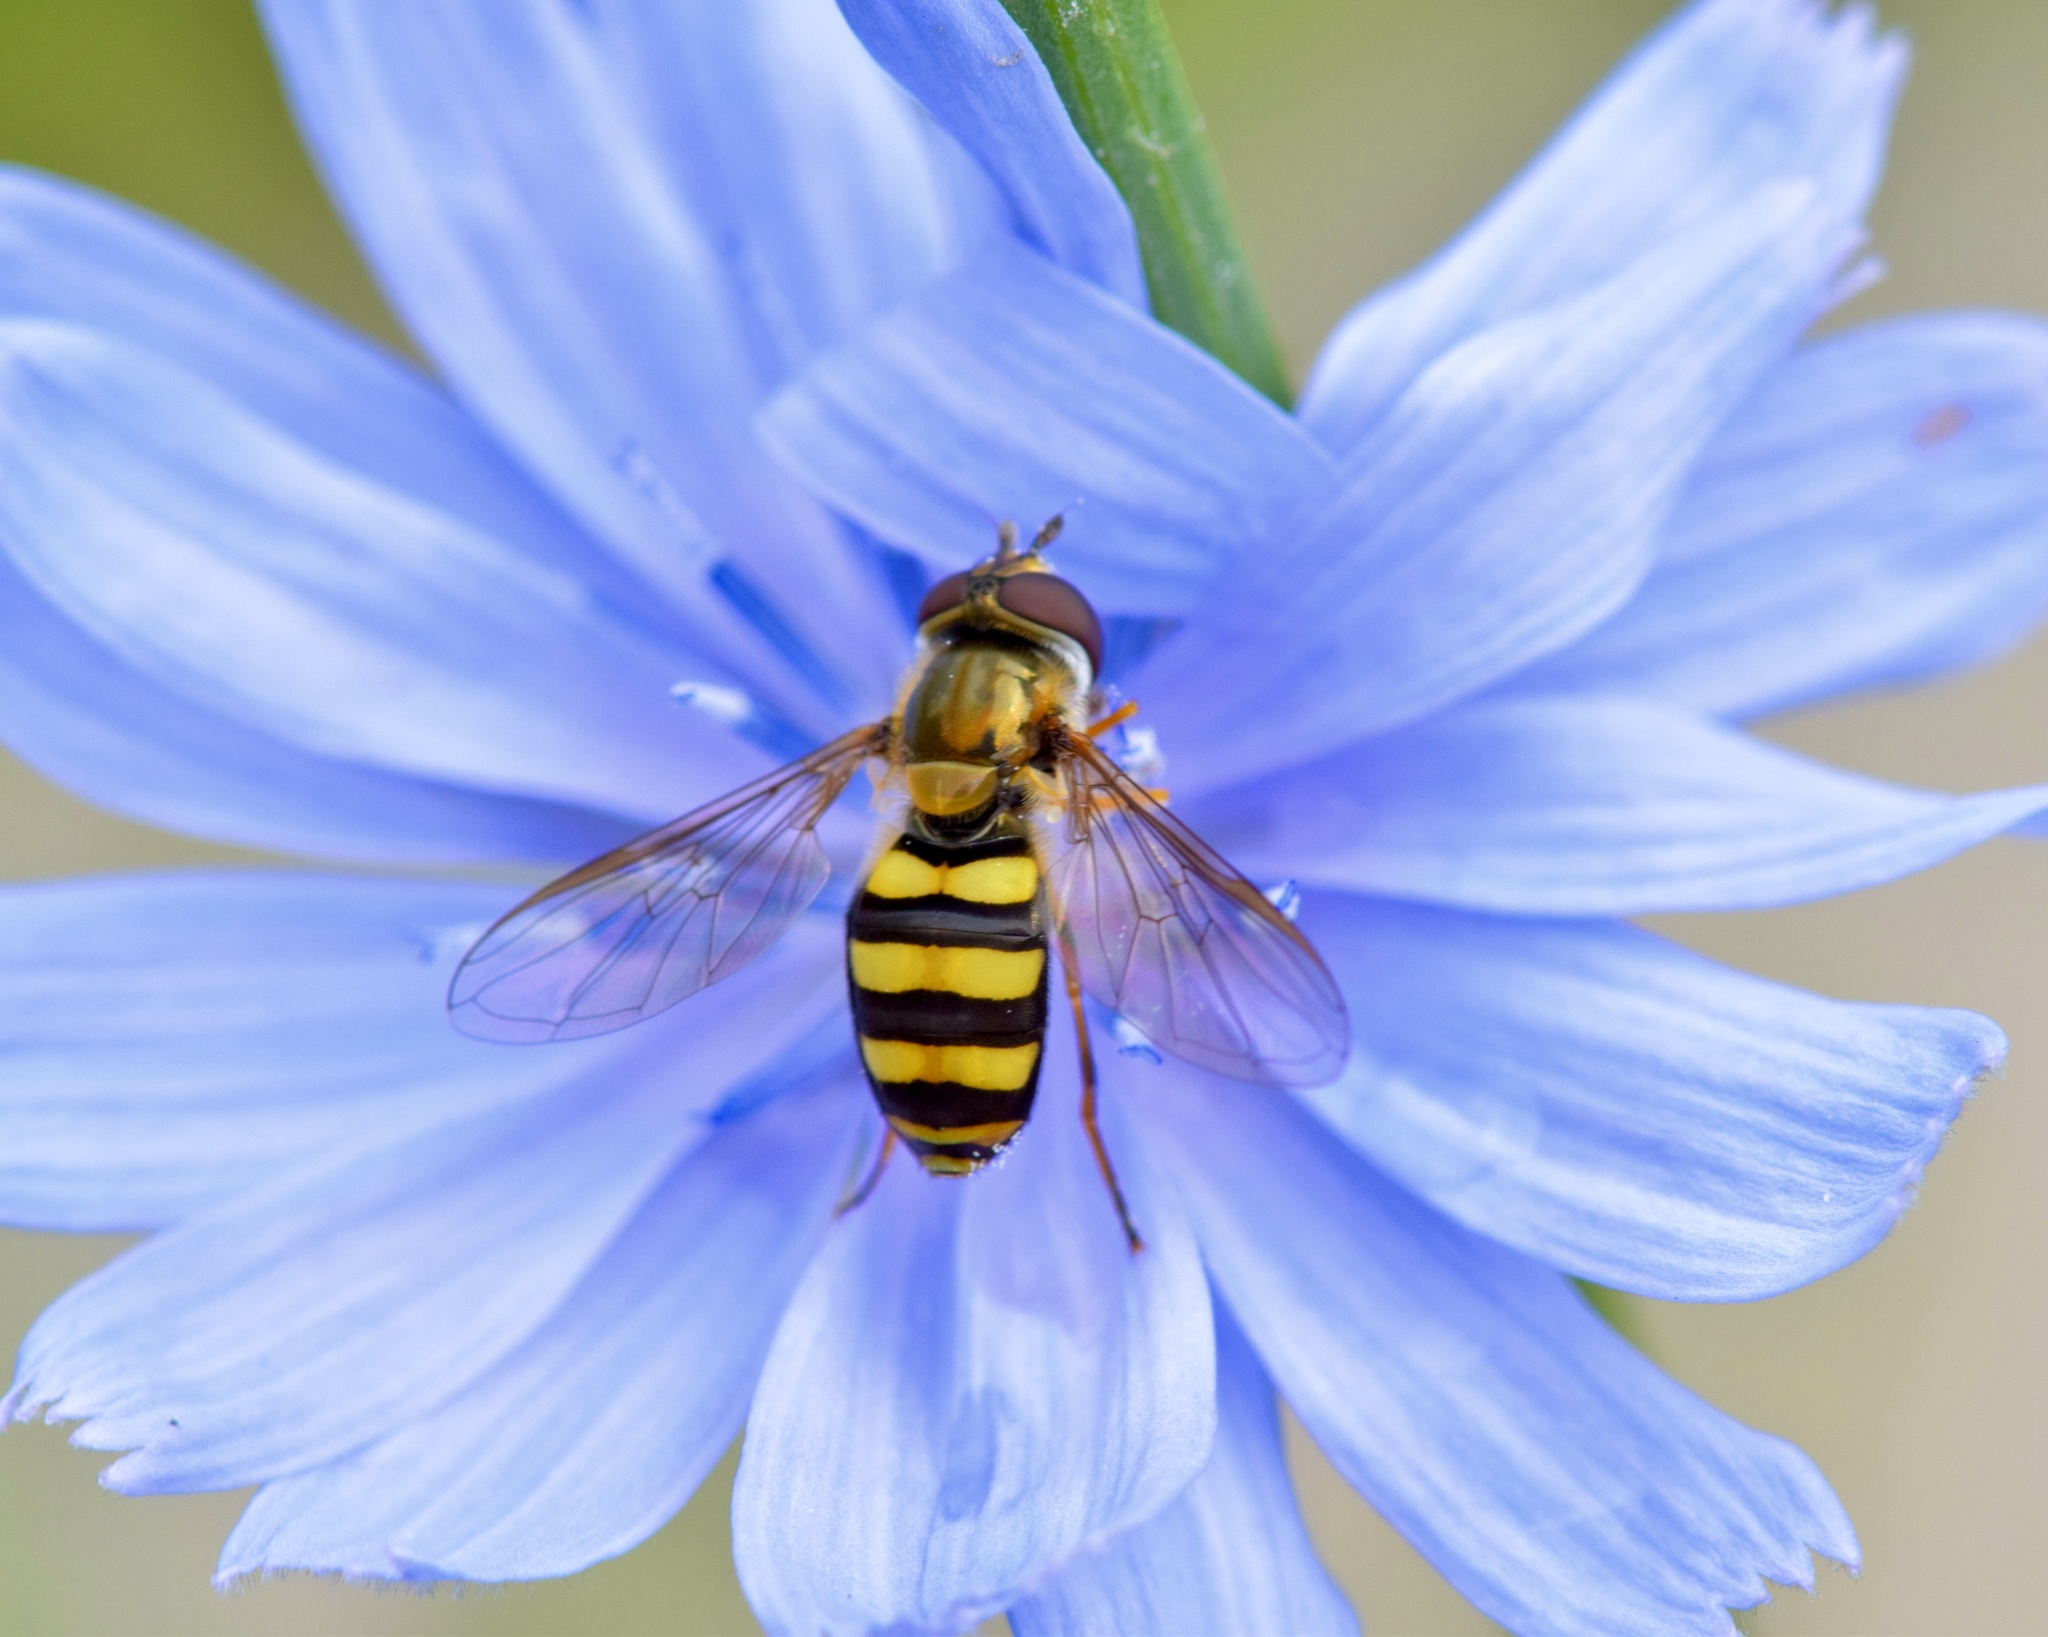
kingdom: Animalia
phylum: Arthropoda
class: Insecta
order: Diptera
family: Syrphidae
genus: Eupeodes
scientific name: Eupeodes
